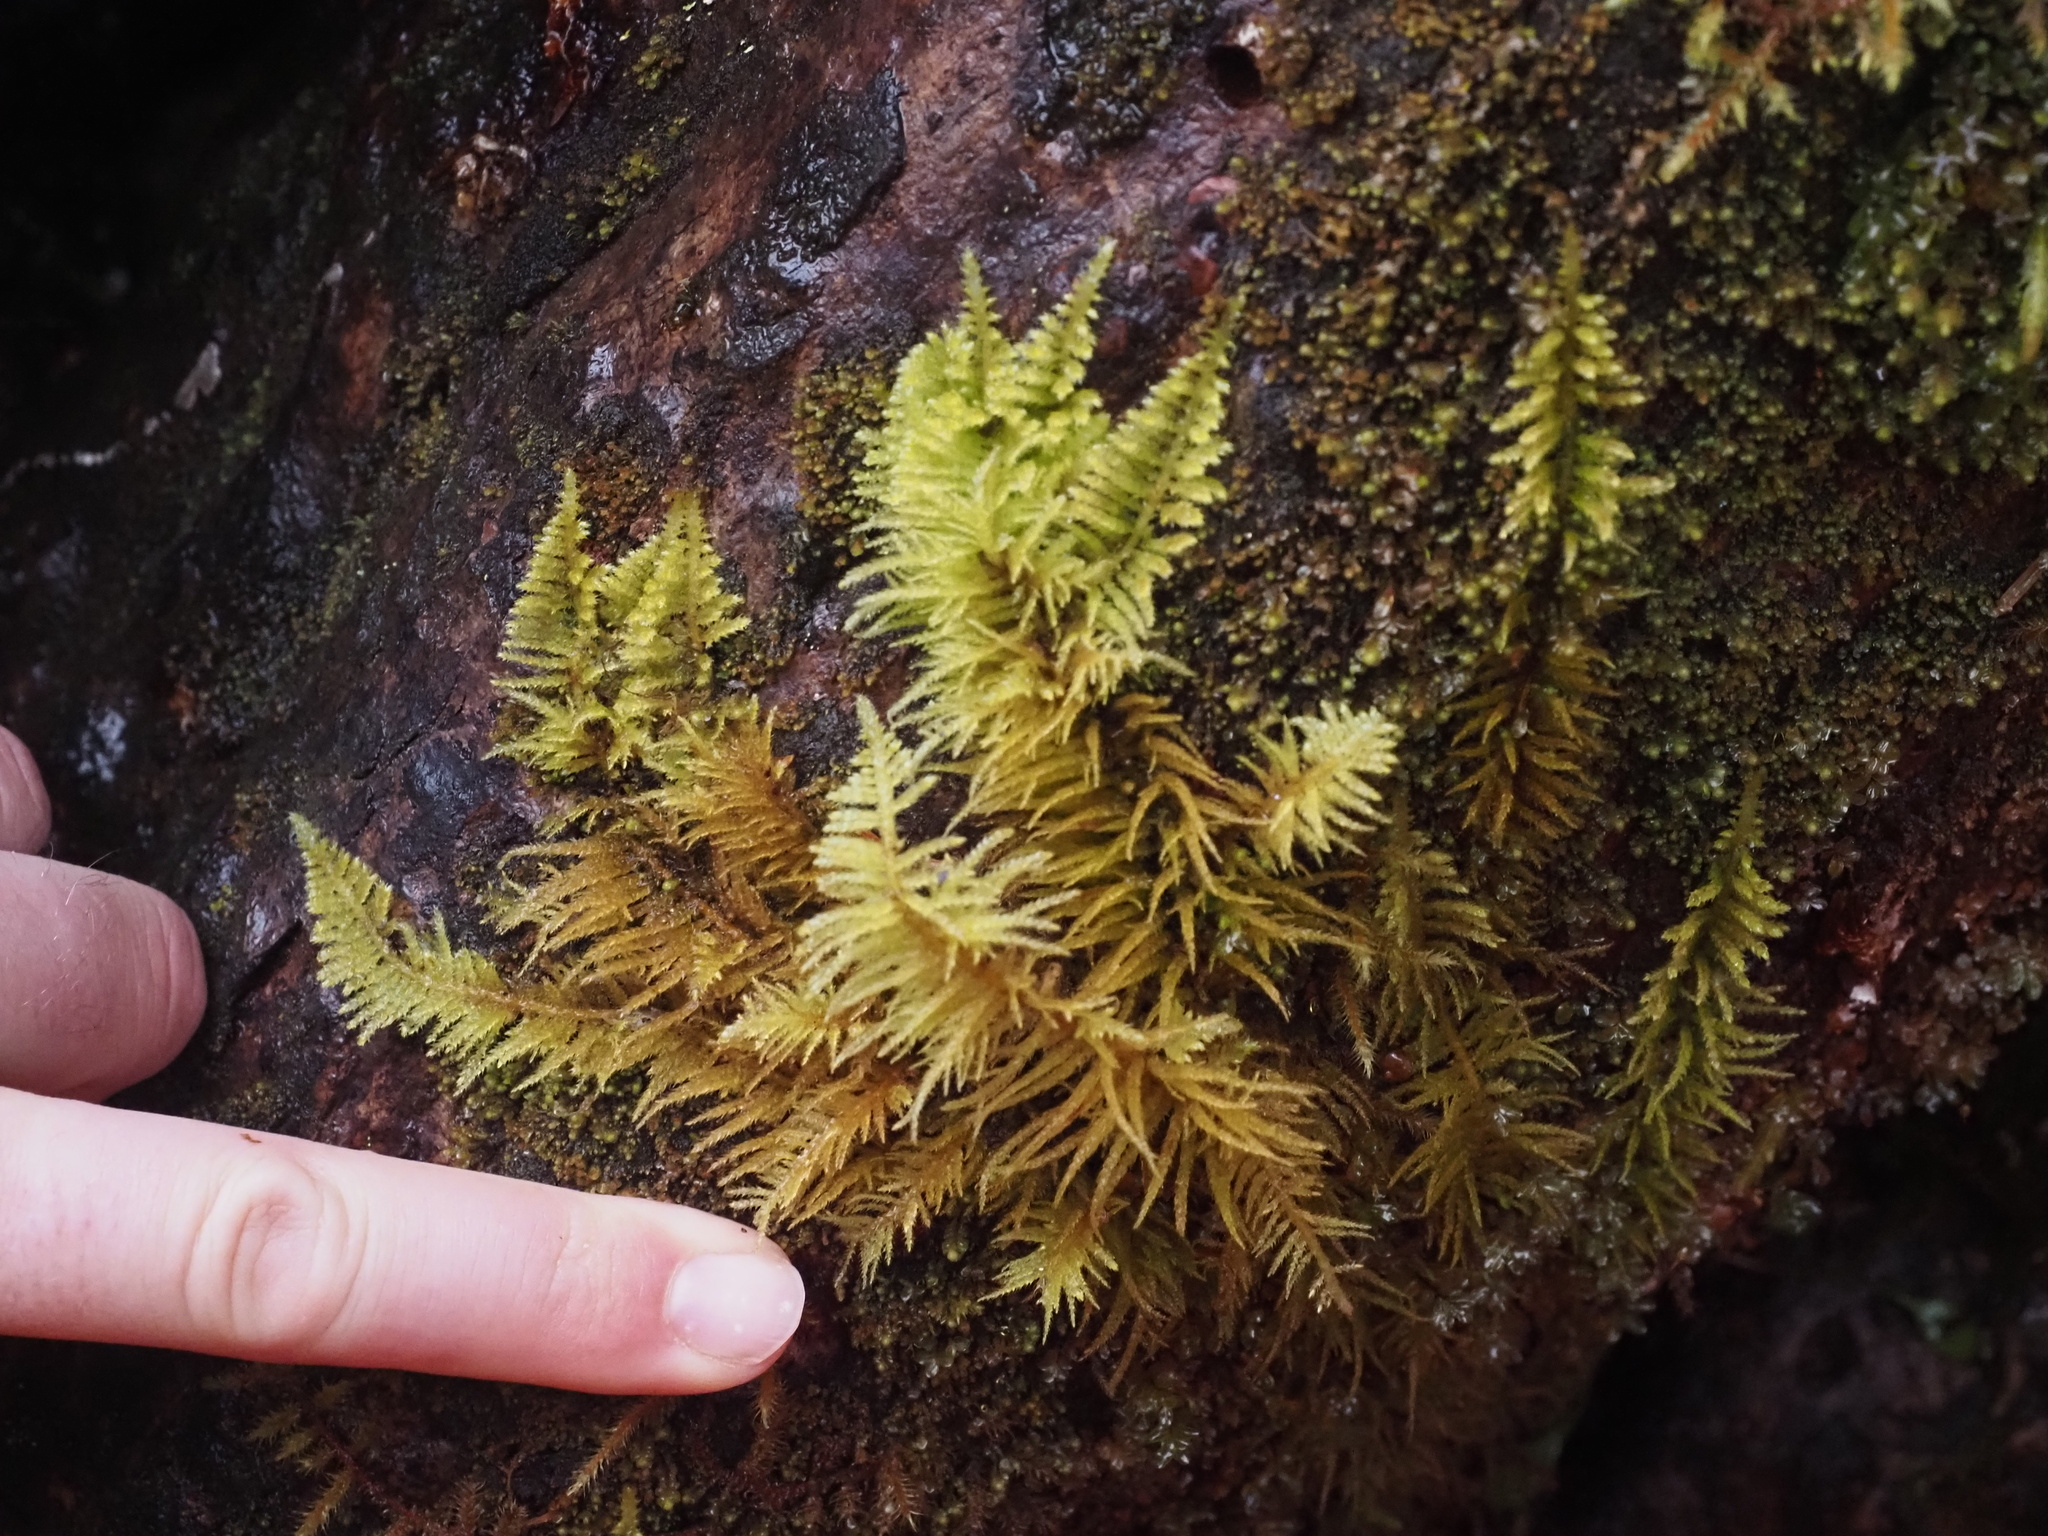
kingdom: Plantae
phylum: Bryophyta
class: Bryopsida
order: Hypnales
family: Brachytheciaceae
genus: Kindbergia
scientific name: Kindbergia oregana
